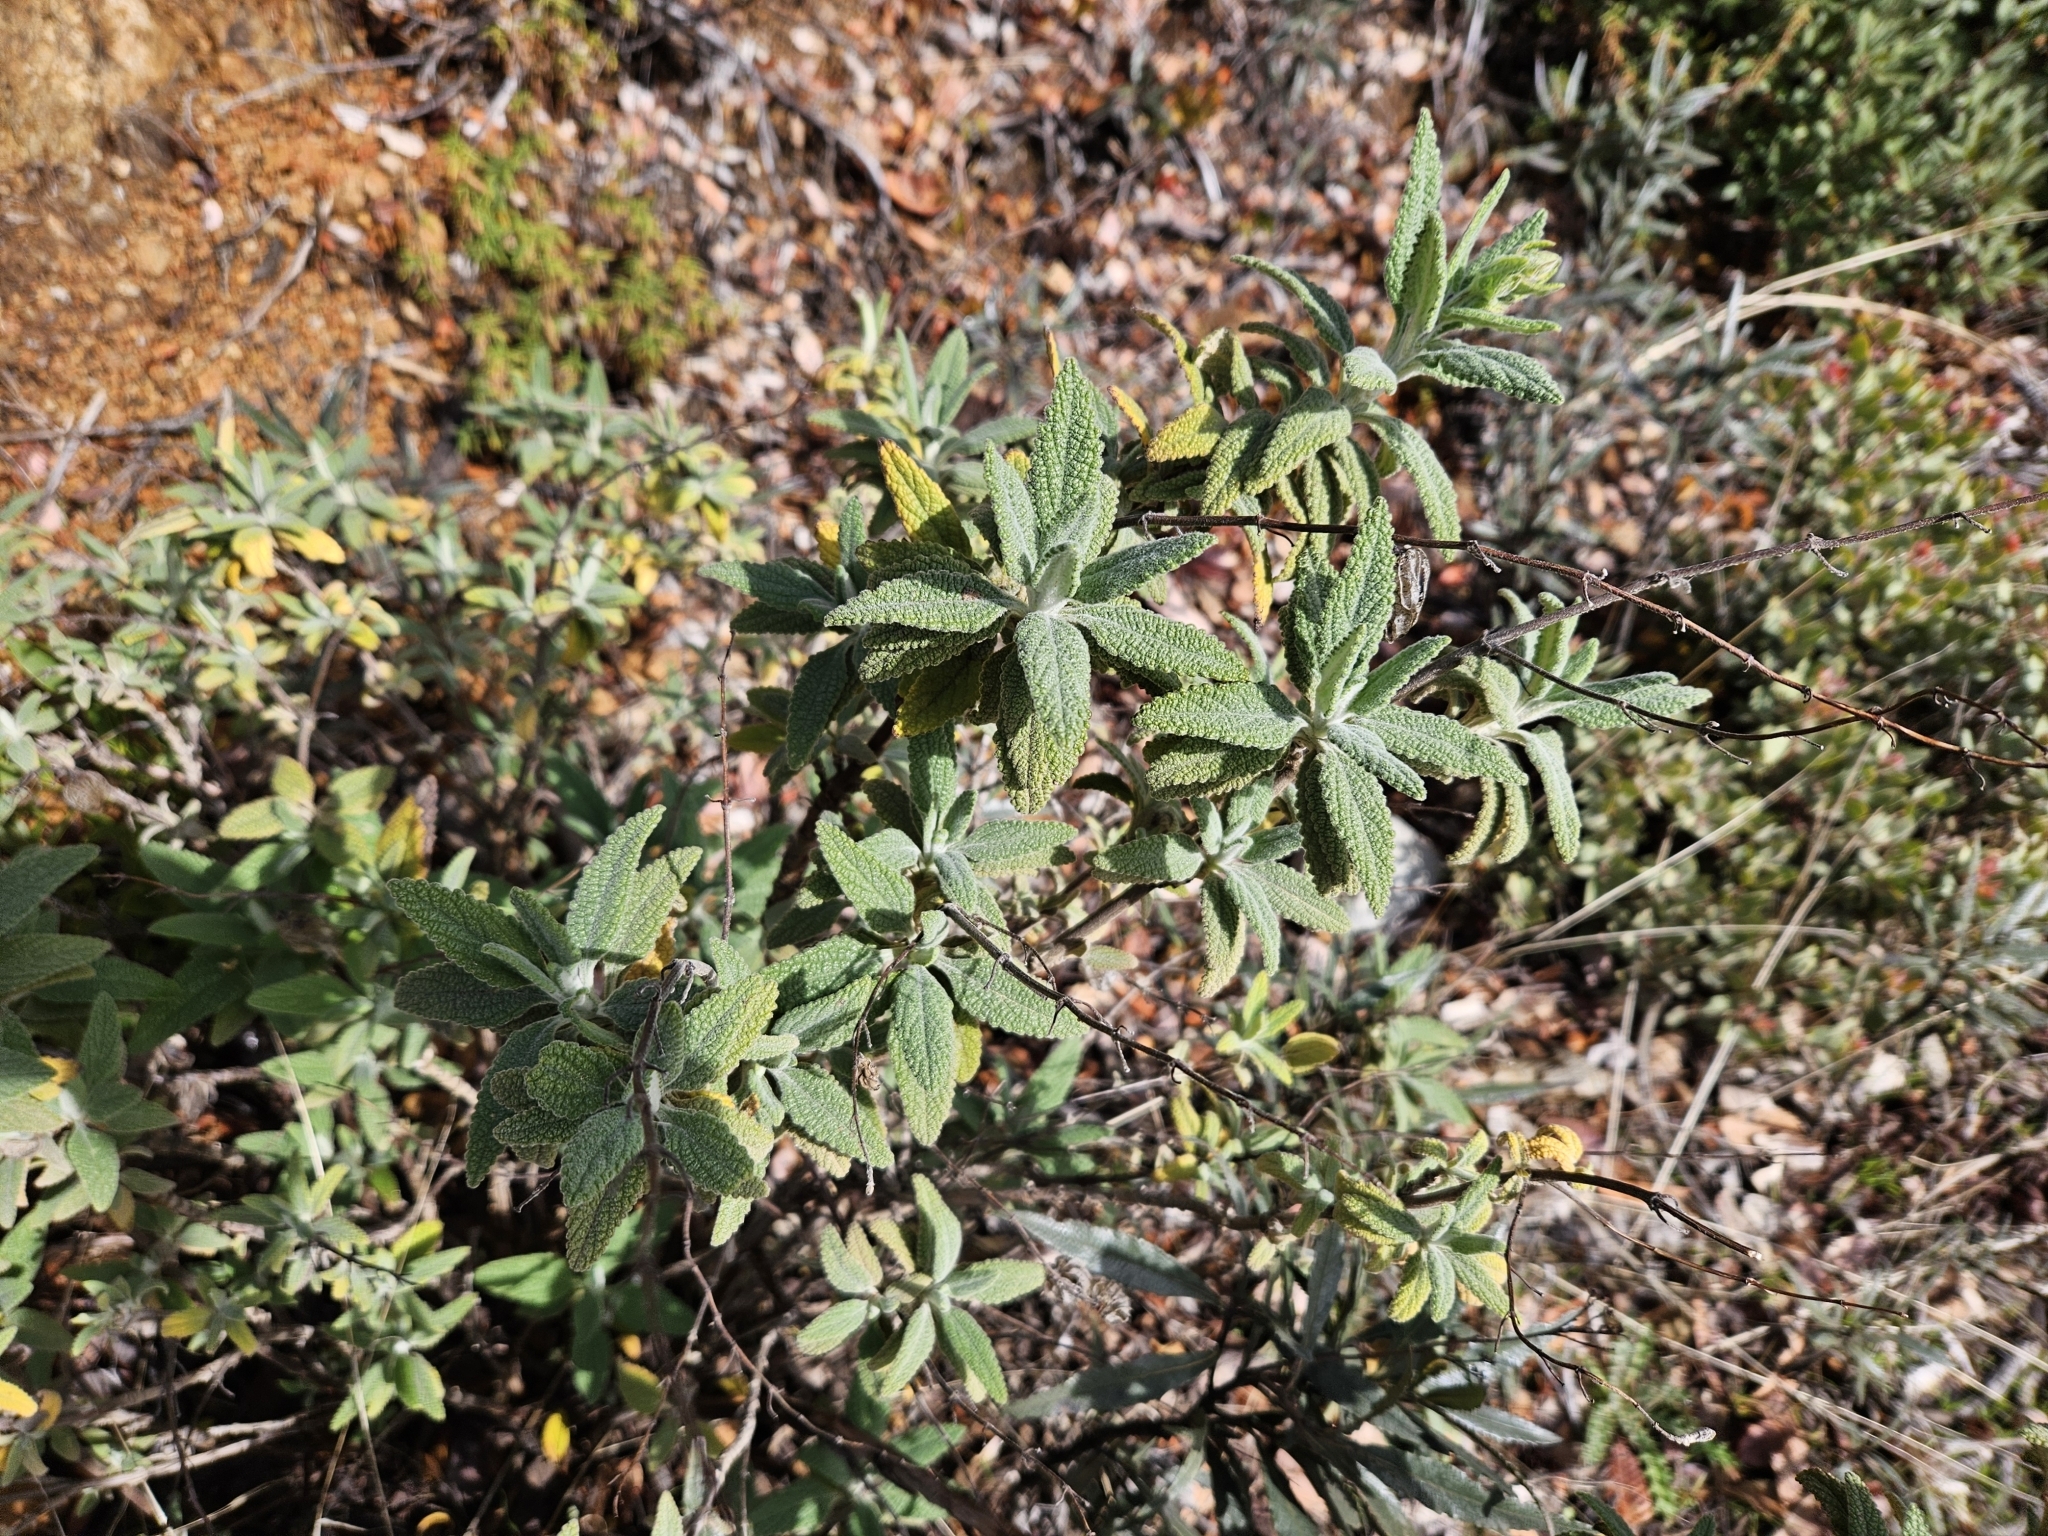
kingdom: Plantae
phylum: Tracheophyta
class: Magnoliopsida
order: Lamiales
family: Lamiaceae
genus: Lepechinia
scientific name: Lepechinia calycina
